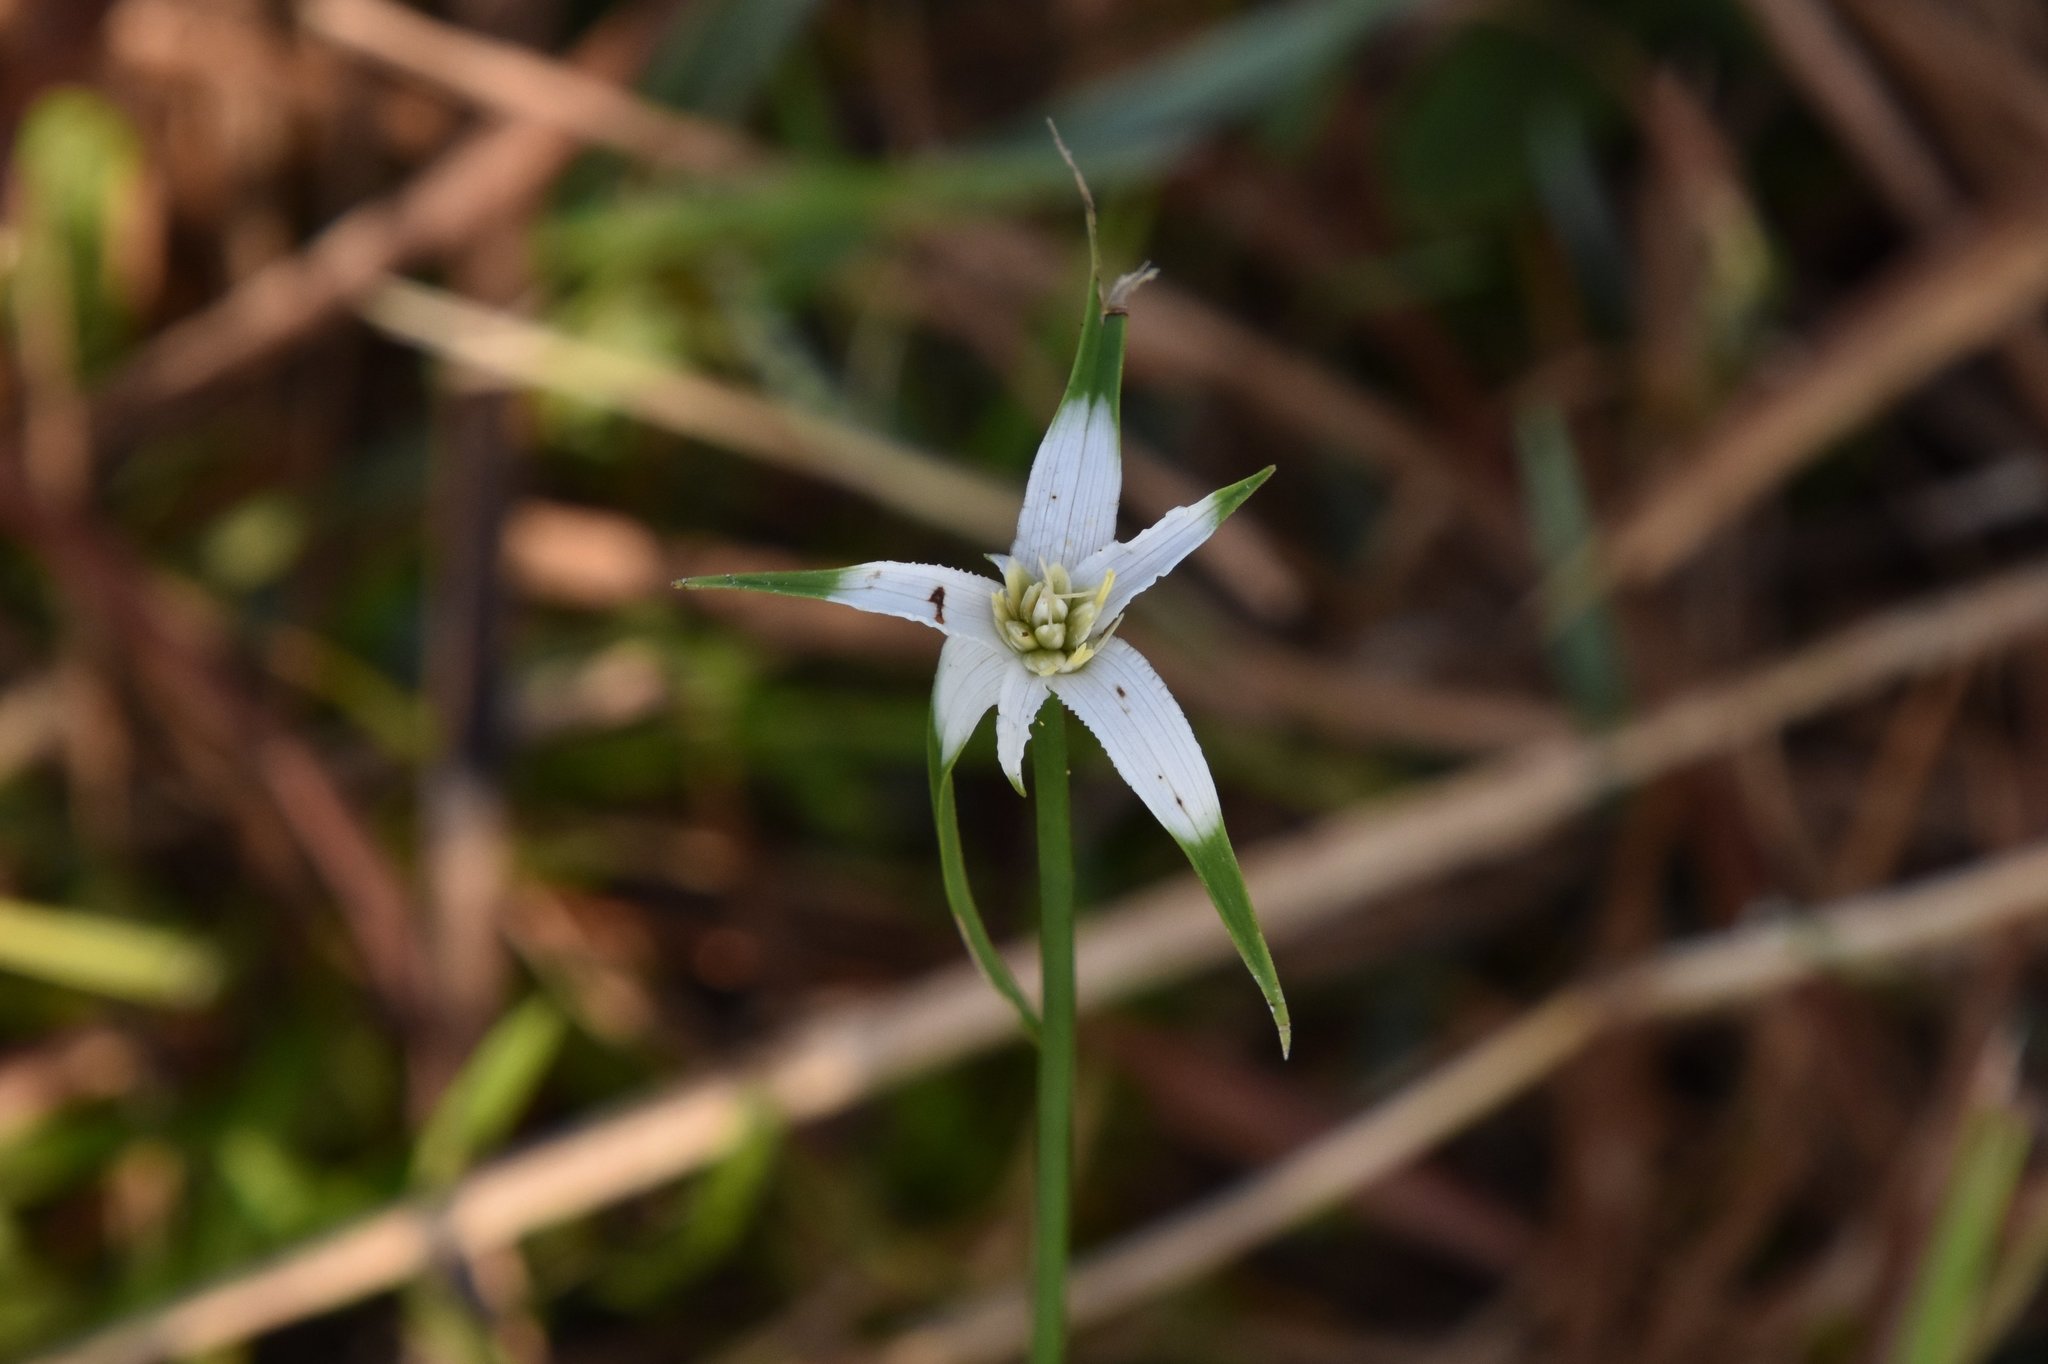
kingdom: Plantae
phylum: Tracheophyta
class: Liliopsida
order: Poales
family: Cyperaceae
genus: Rhynchospora
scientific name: Rhynchospora colorata
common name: Star sedge
